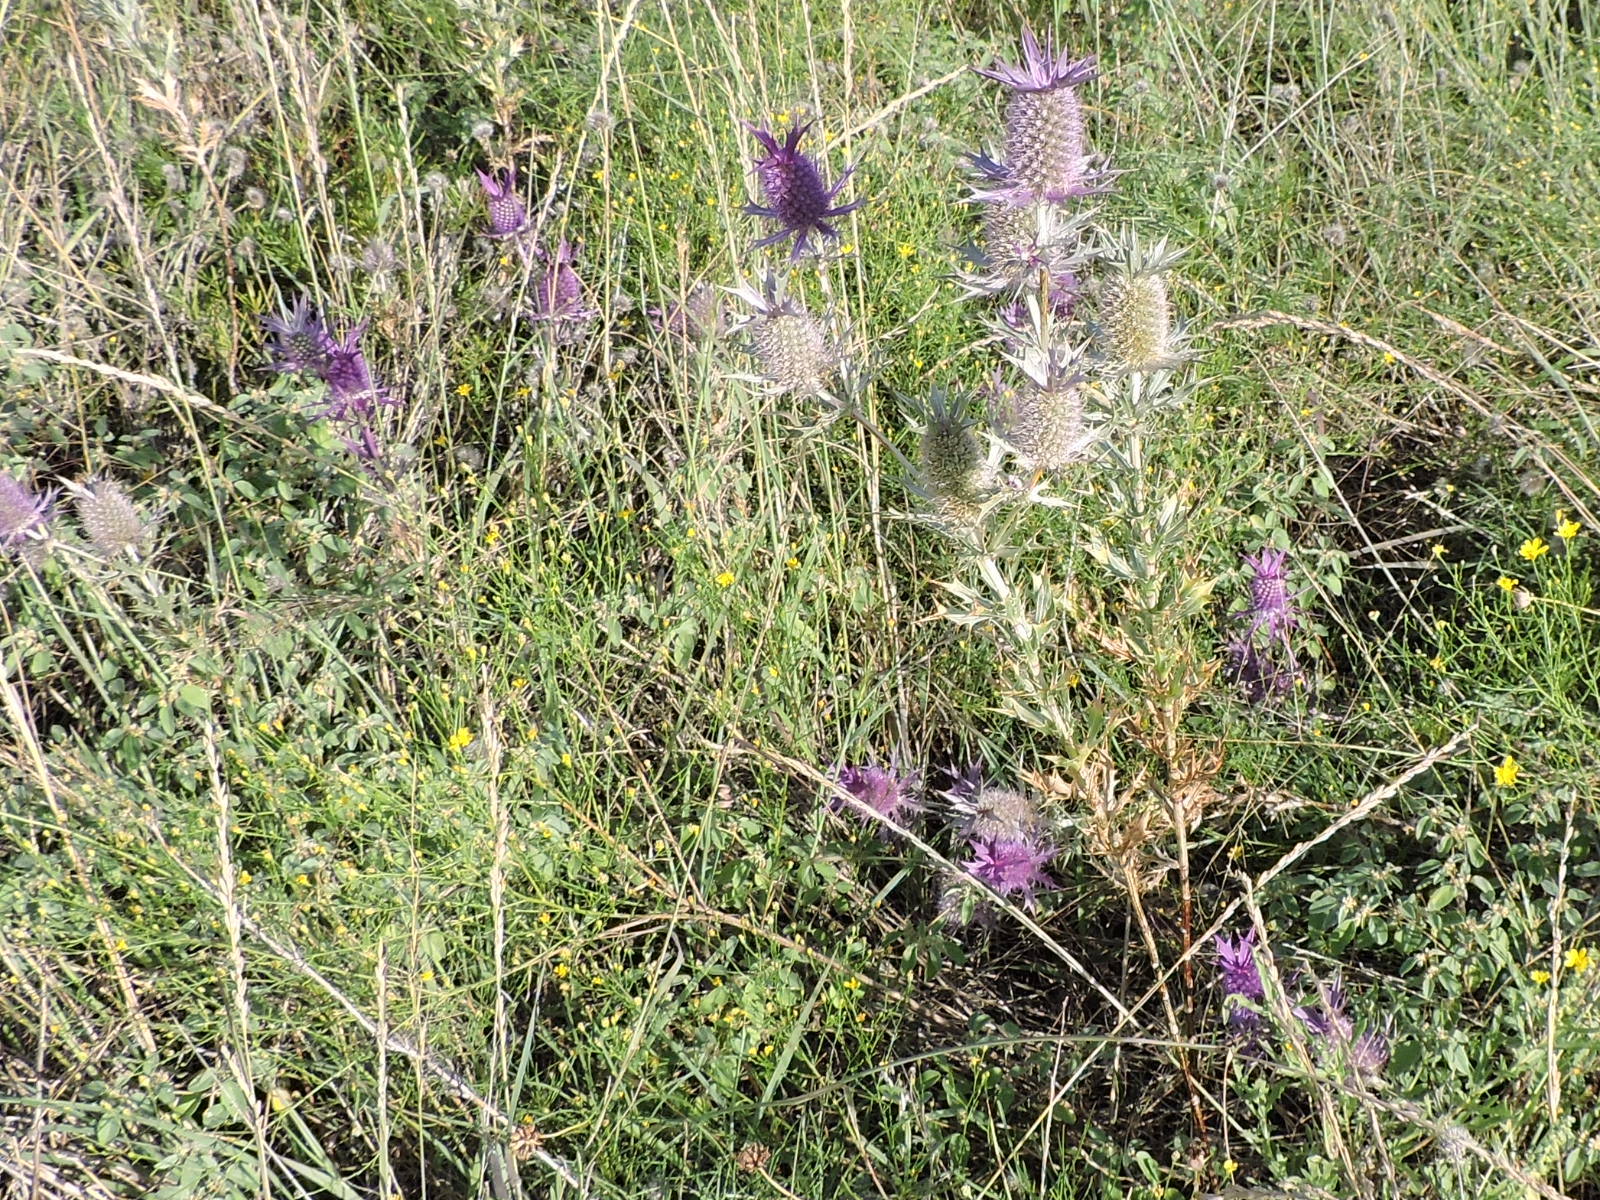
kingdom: Plantae
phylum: Tracheophyta
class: Magnoliopsida
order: Apiales
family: Apiaceae
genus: Eryngium
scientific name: Eryngium leavenworthii
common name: Leavenworth's eryngo
